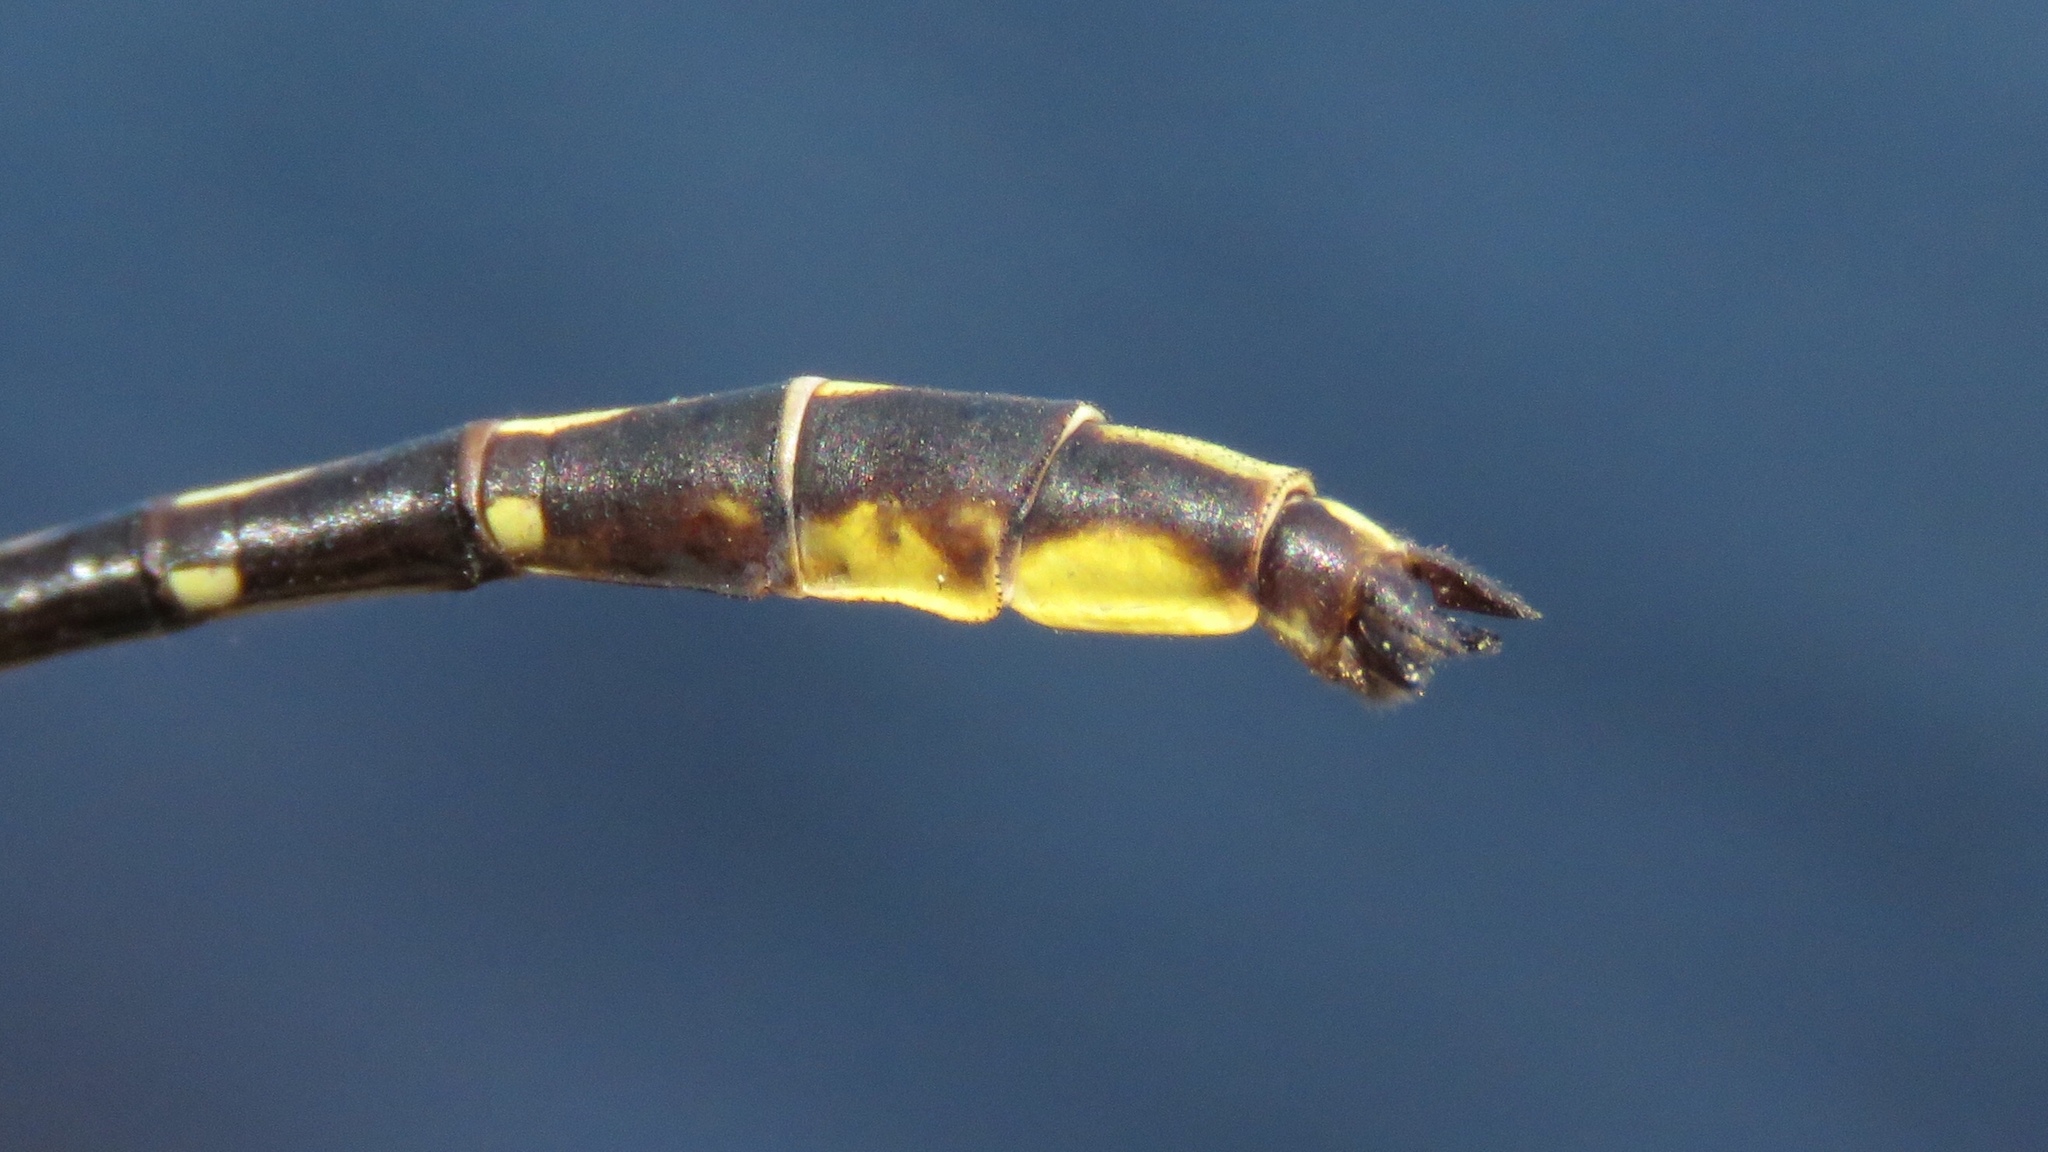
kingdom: Animalia
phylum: Arthropoda
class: Insecta
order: Odonata
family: Gomphidae
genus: Phanogomphus
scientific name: Phanogomphus exilis
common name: Lancet clubtail
